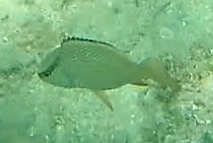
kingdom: Animalia
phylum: Chordata
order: Perciformes
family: Lutjanidae
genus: Lutjanus
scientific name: Lutjanus griseus
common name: Gray snapper
